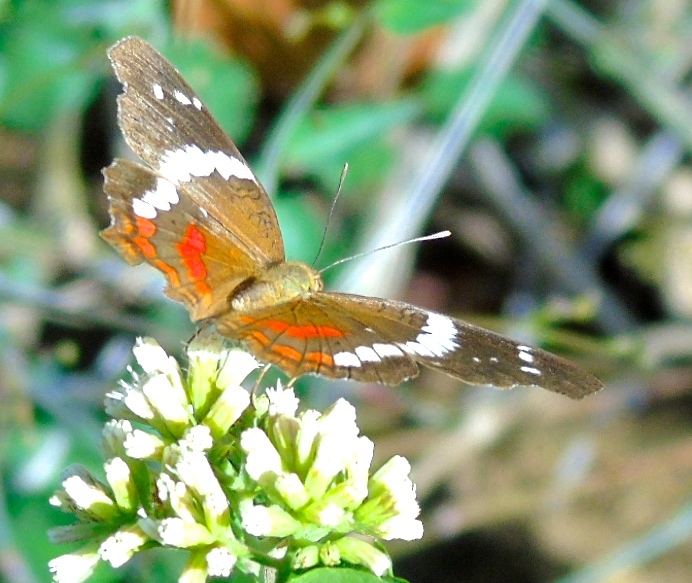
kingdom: Animalia
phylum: Arthropoda
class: Insecta
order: Lepidoptera
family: Nymphalidae
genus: Anartia
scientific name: Anartia fatima
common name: Banded peacock
